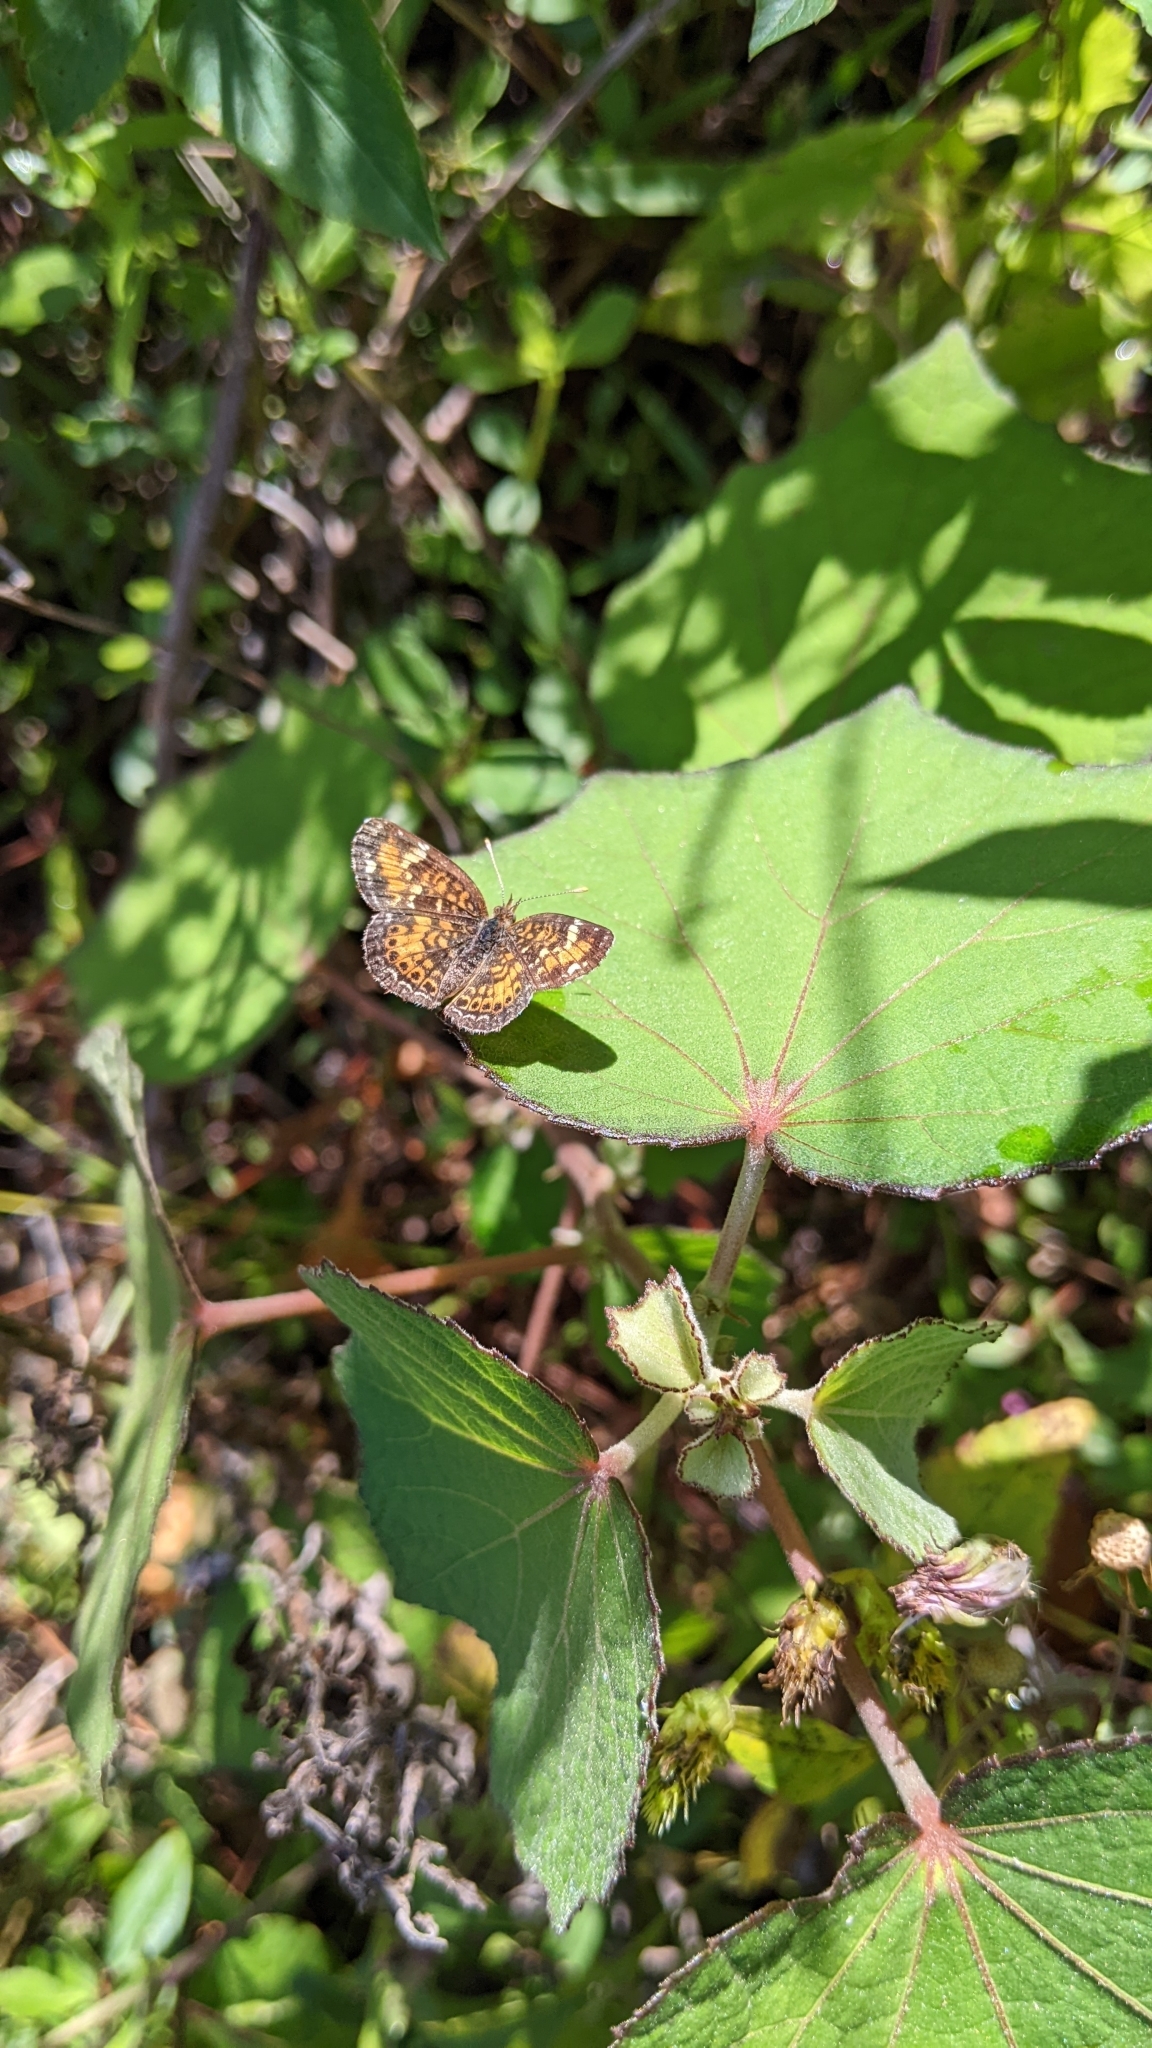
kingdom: Animalia
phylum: Arthropoda
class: Insecta
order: Lepidoptera
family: Nymphalidae
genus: Phyciodes
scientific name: Phyciodes phaon
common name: Phaon crescent
